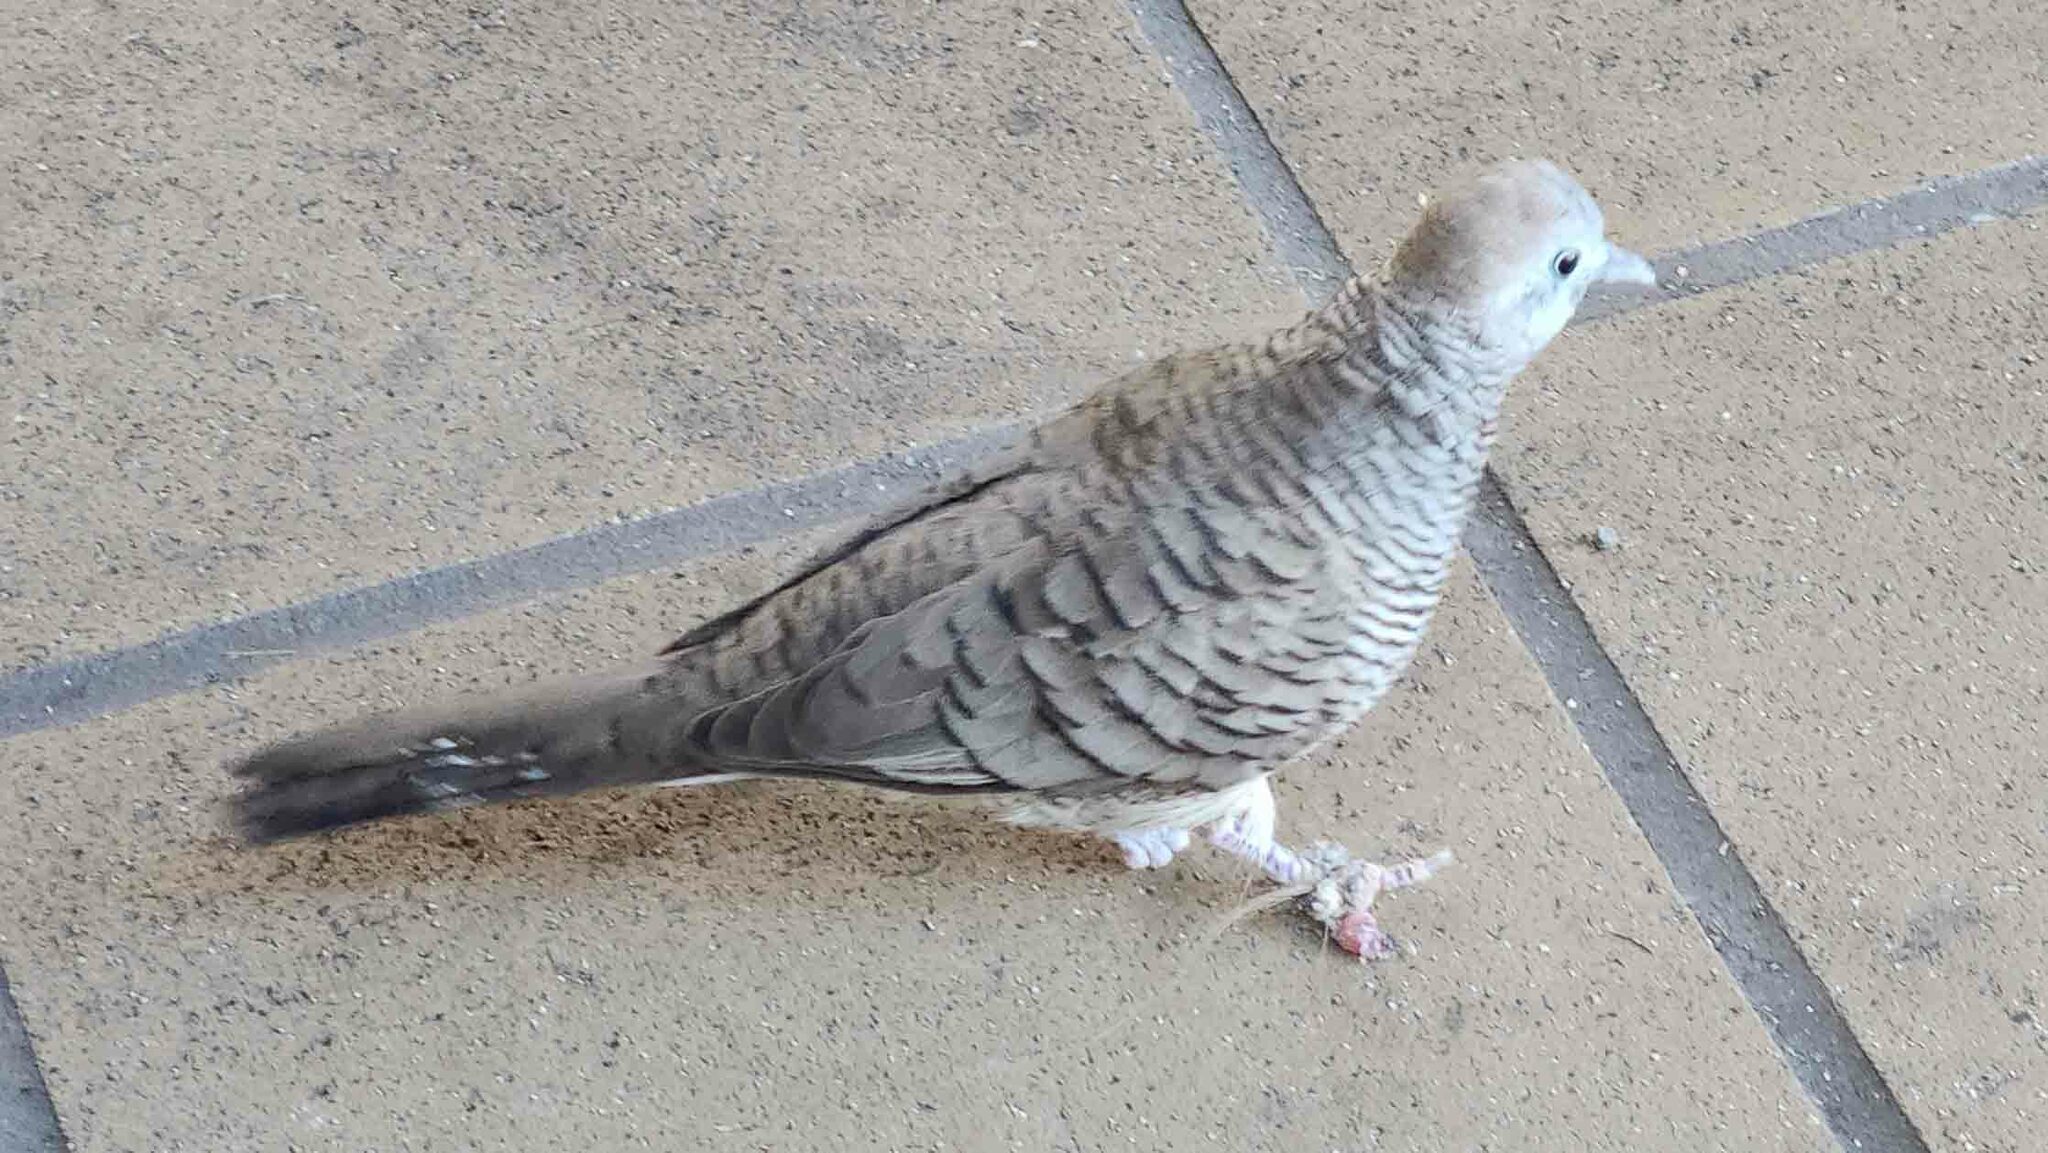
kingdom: Animalia
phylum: Chordata
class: Aves
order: Columbiformes
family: Columbidae
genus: Geopelia
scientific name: Geopelia striata
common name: Zebra dove
